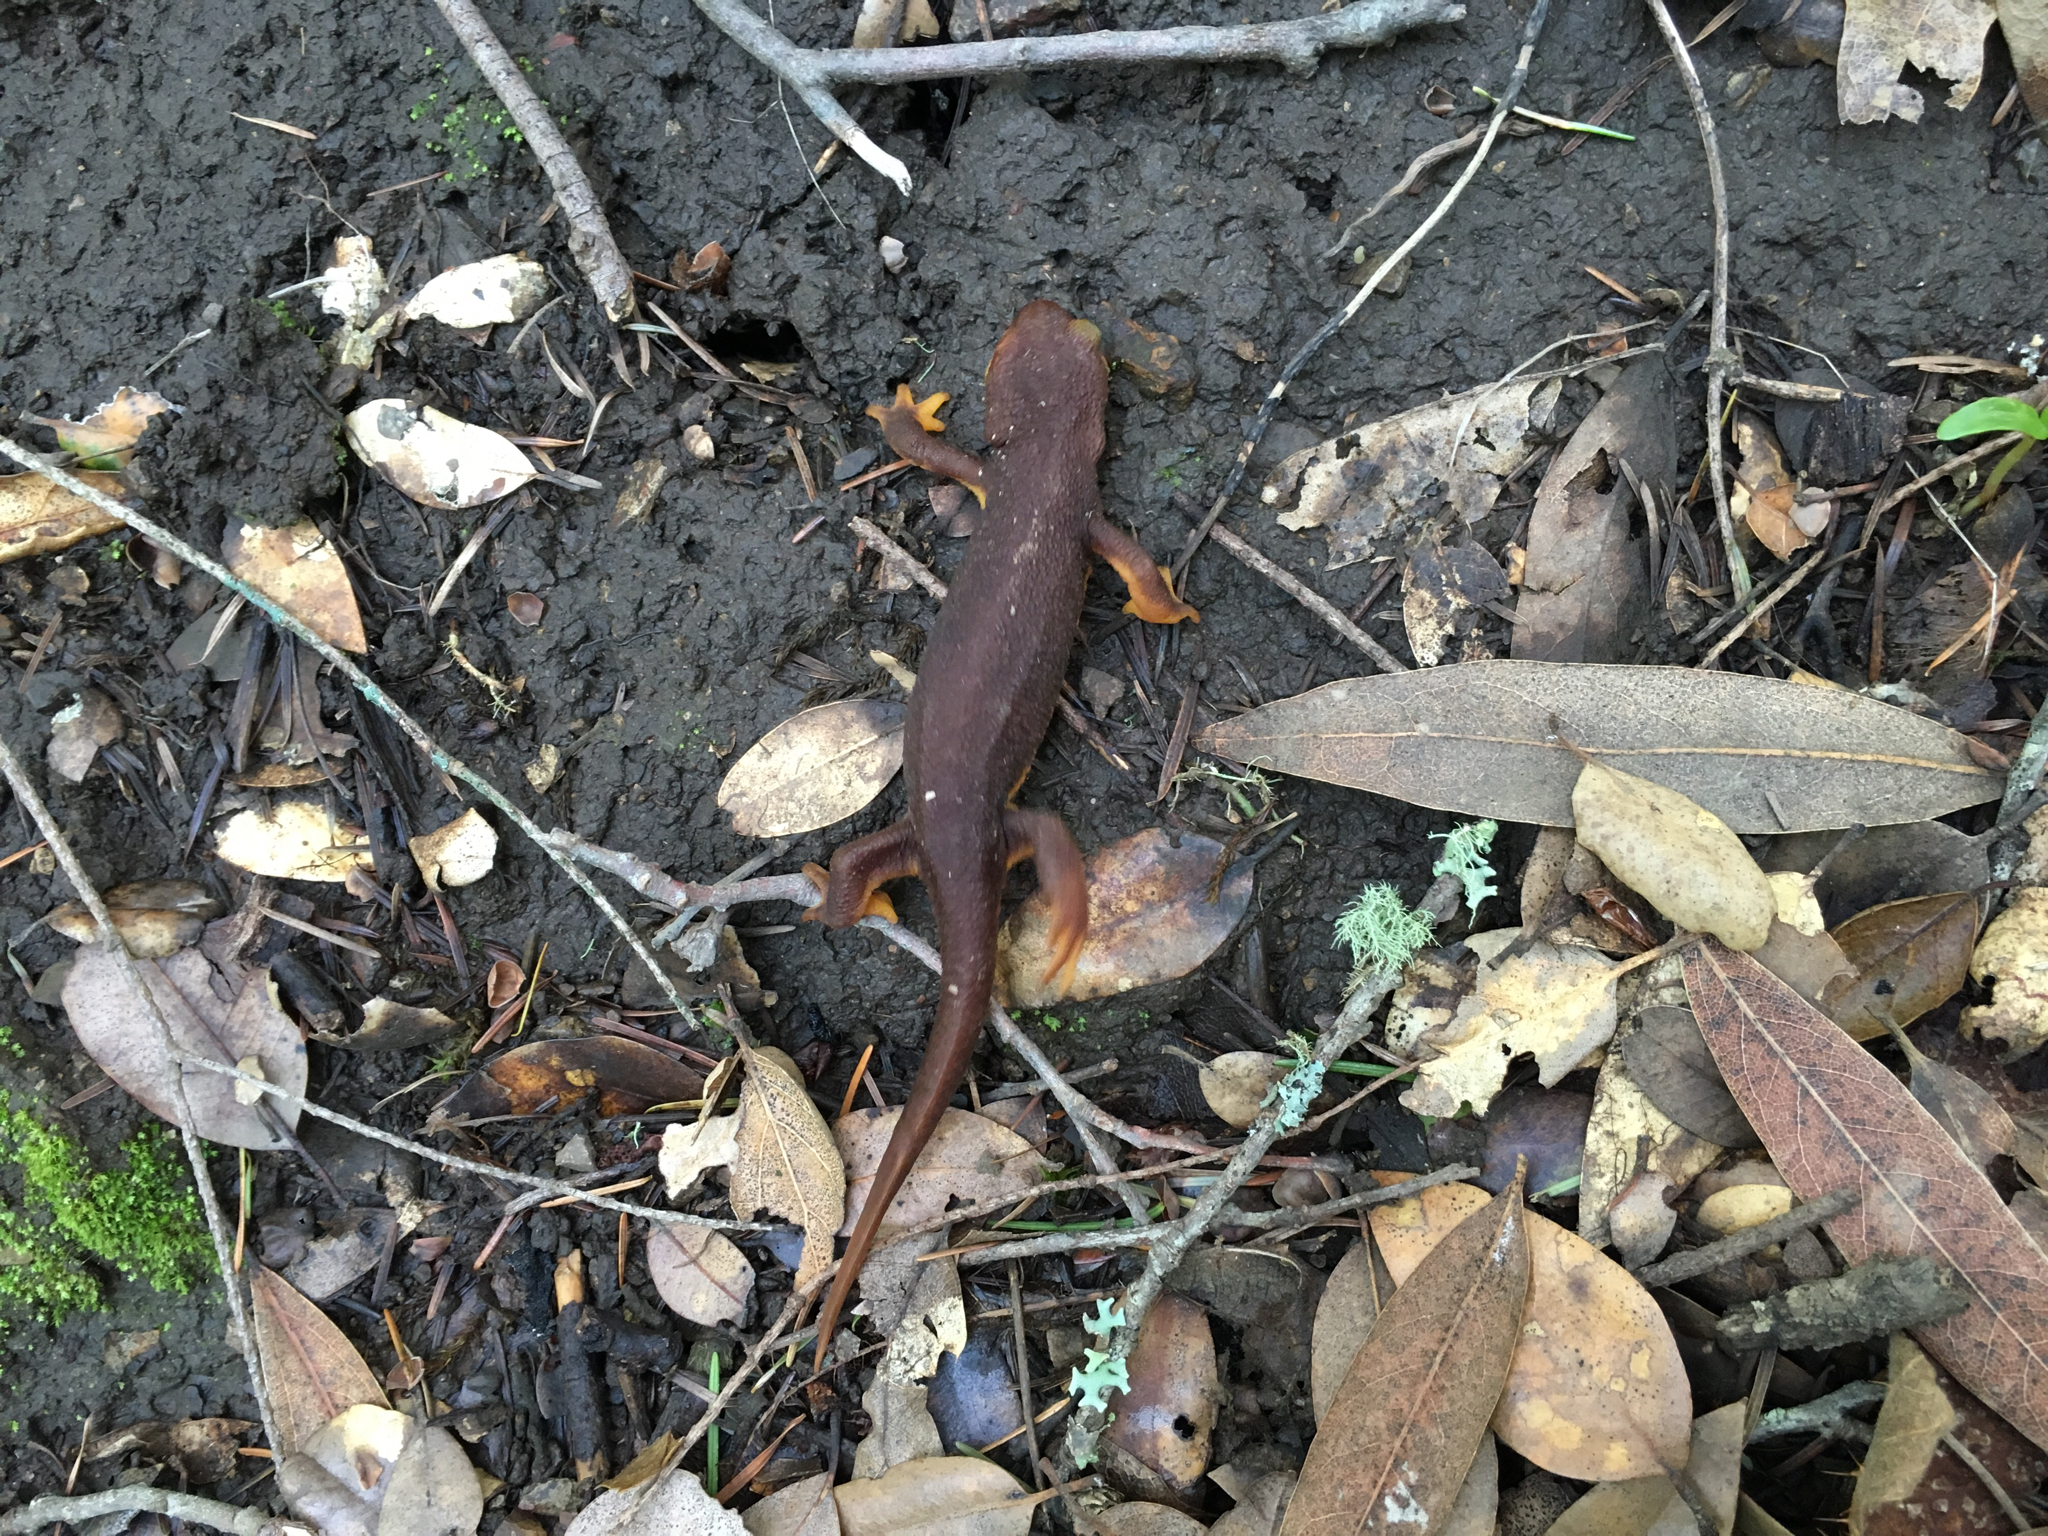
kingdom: Animalia
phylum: Chordata
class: Amphibia
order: Caudata
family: Salamandridae
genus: Taricha
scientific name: Taricha torosa
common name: California newt
